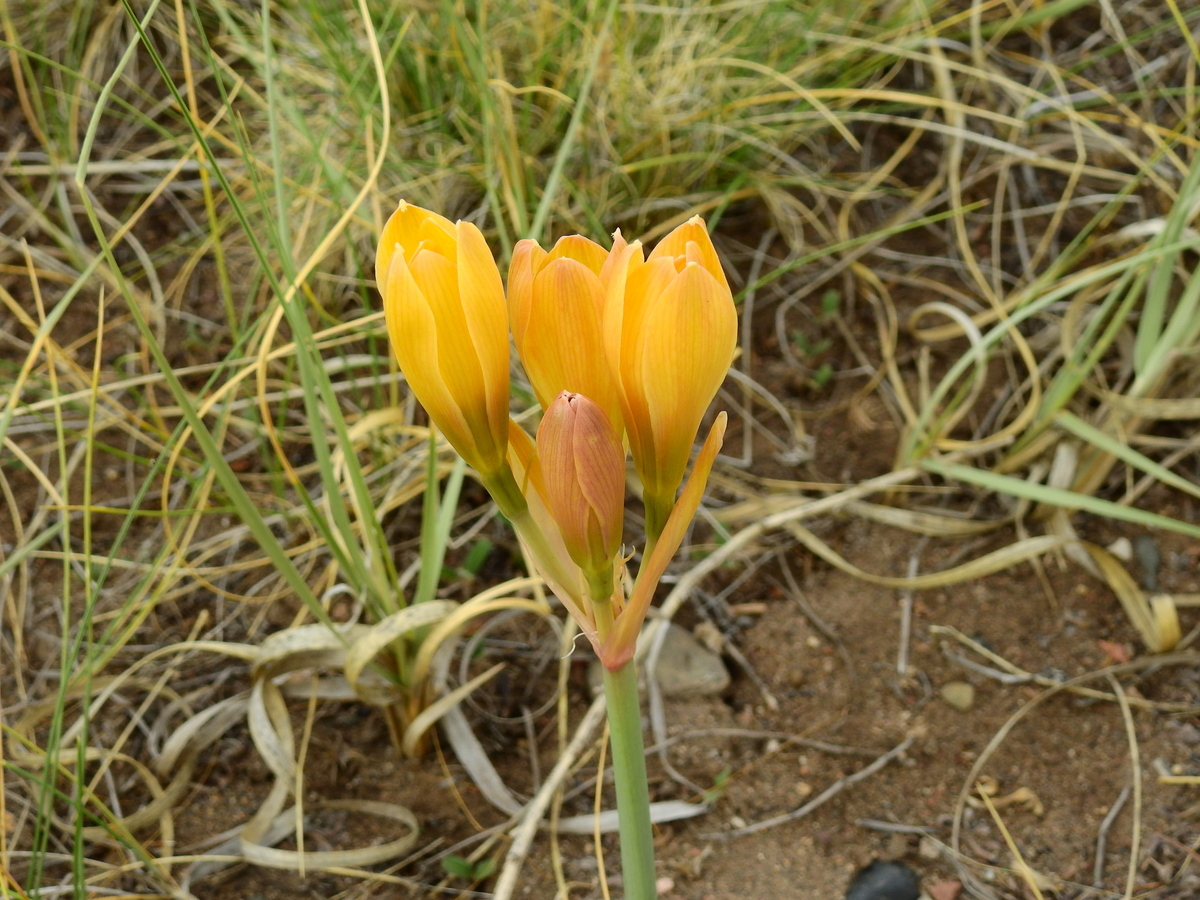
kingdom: Plantae
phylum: Tracheophyta
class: Liliopsida
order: Asparagales
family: Amaryllidaceae
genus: Zephyranthes
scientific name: Zephyranthes gilliesiana
